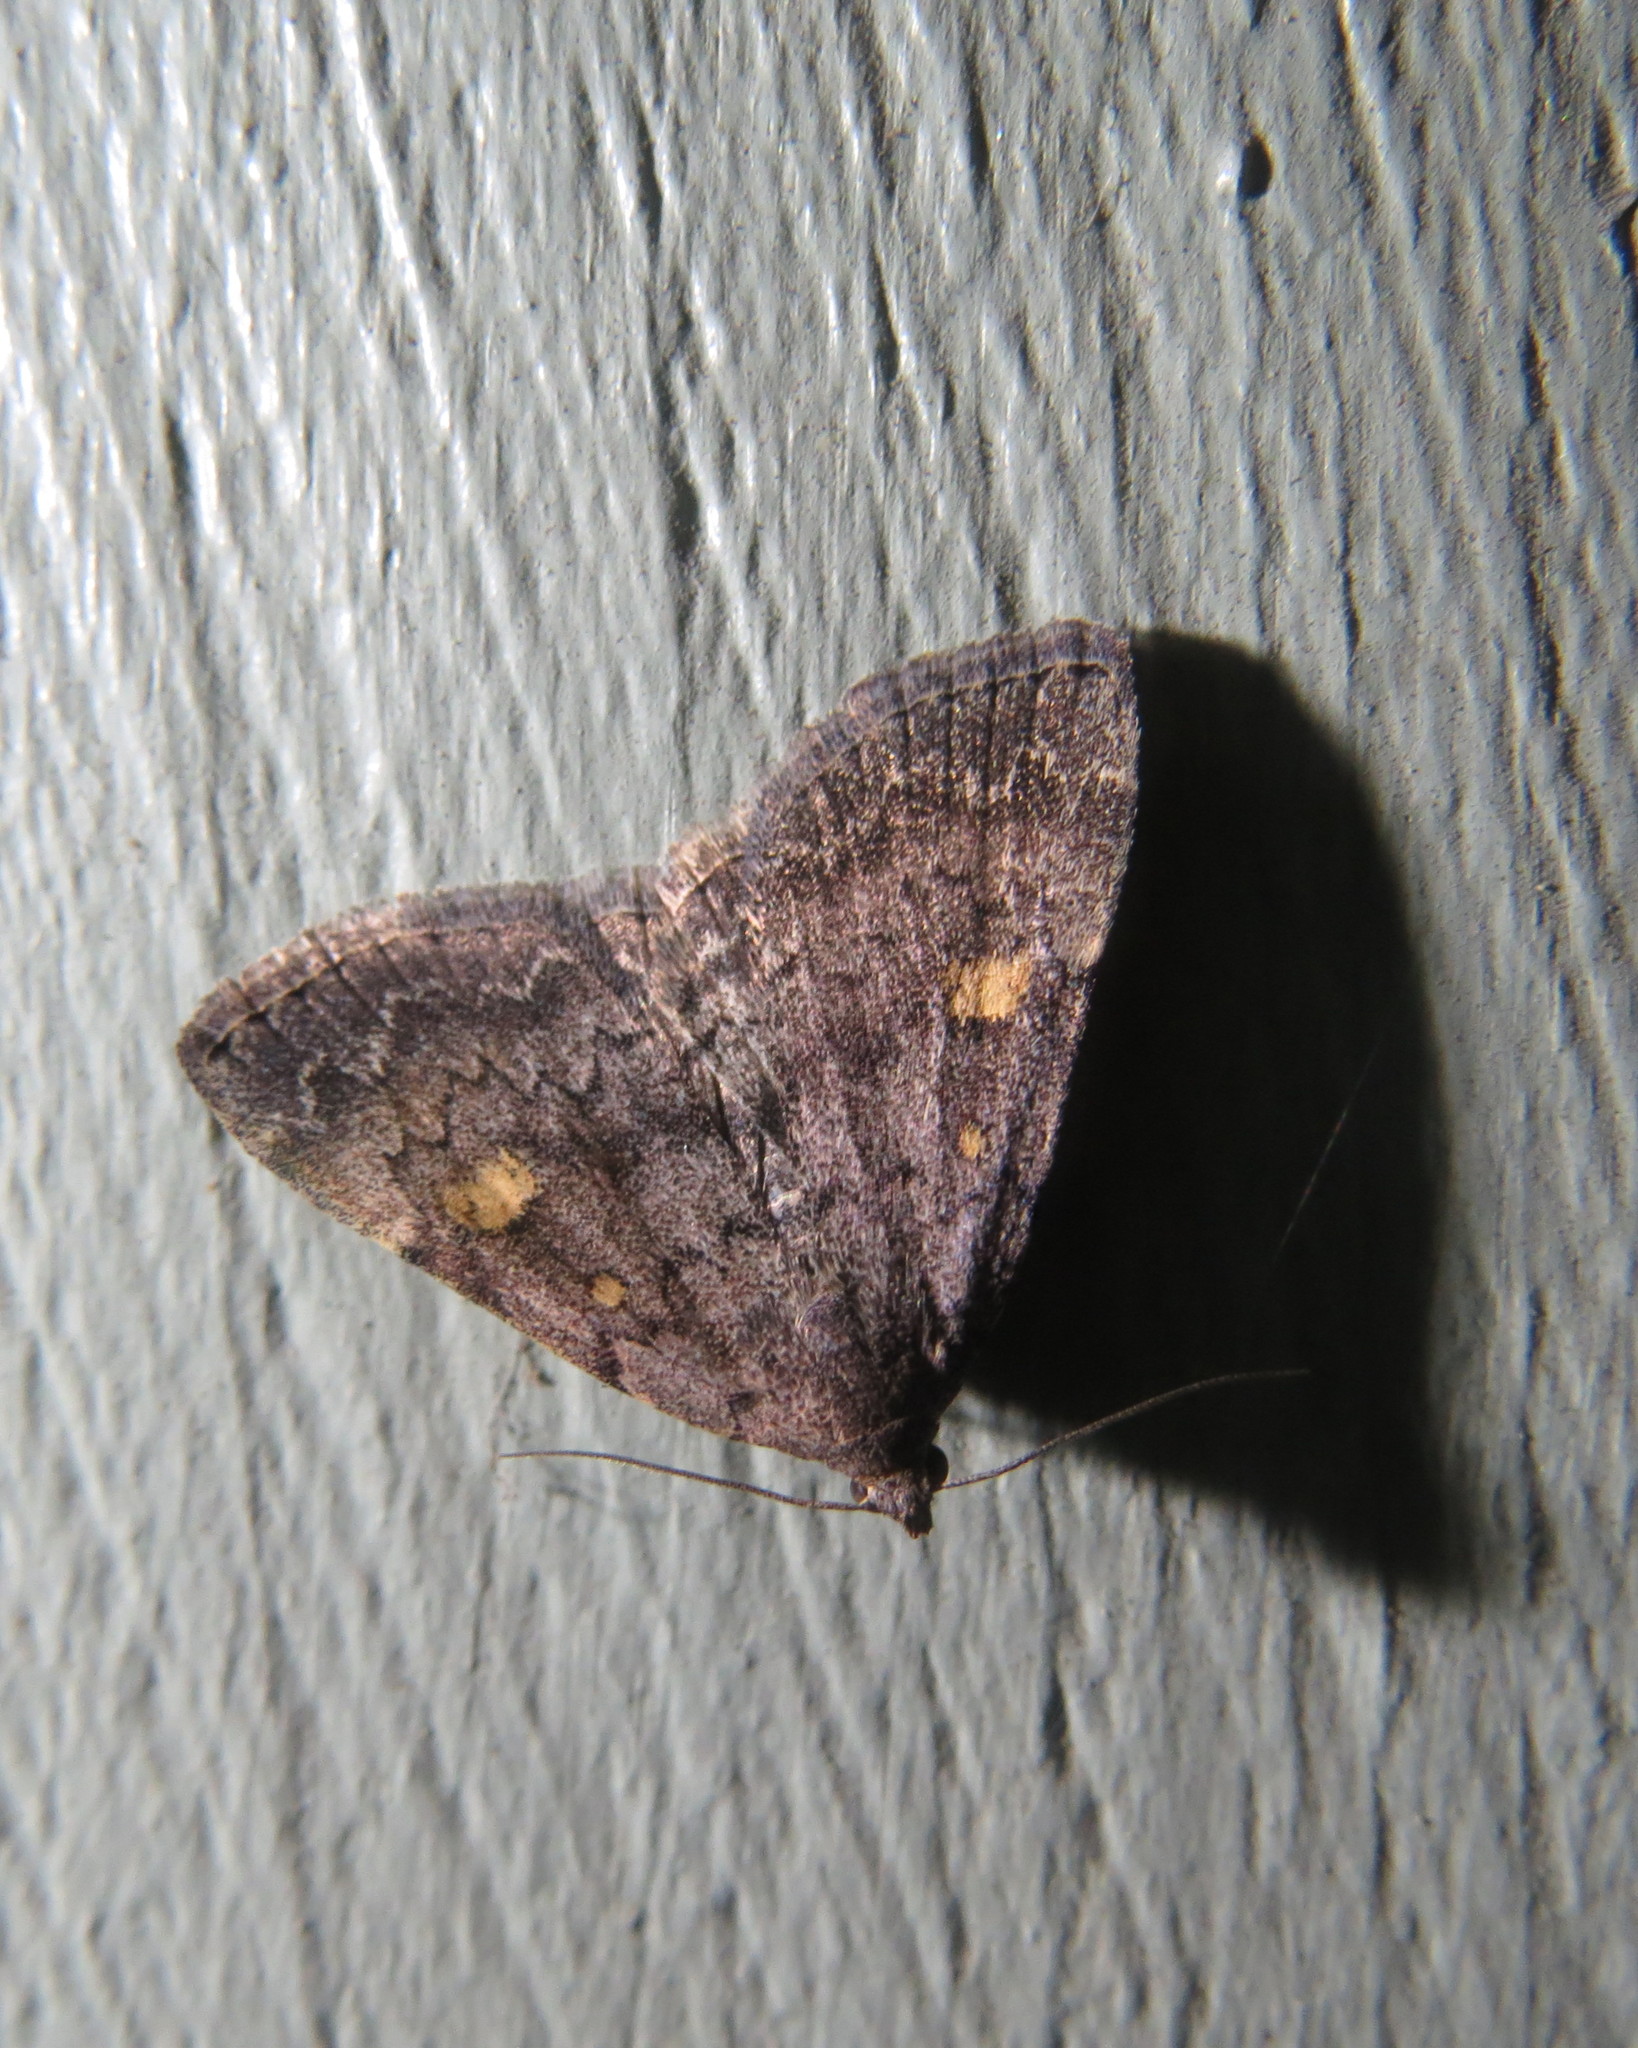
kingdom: Animalia
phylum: Arthropoda
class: Insecta
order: Lepidoptera
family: Erebidae
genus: Idia
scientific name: Idia aemula
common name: Common idia moth
